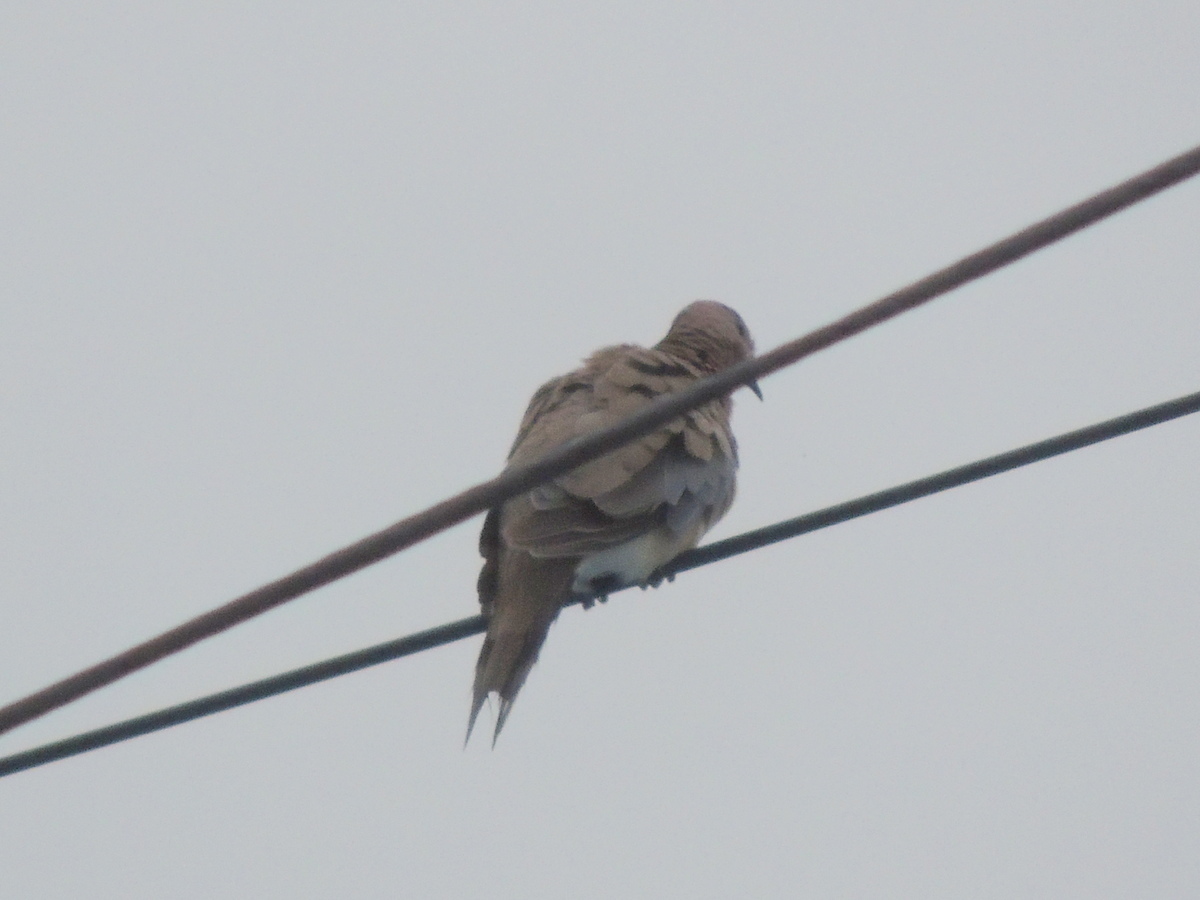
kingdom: Animalia
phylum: Chordata
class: Aves
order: Columbiformes
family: Columbidae
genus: Spilopelia
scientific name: Spilopelia senegalensis
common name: Laughing dove
